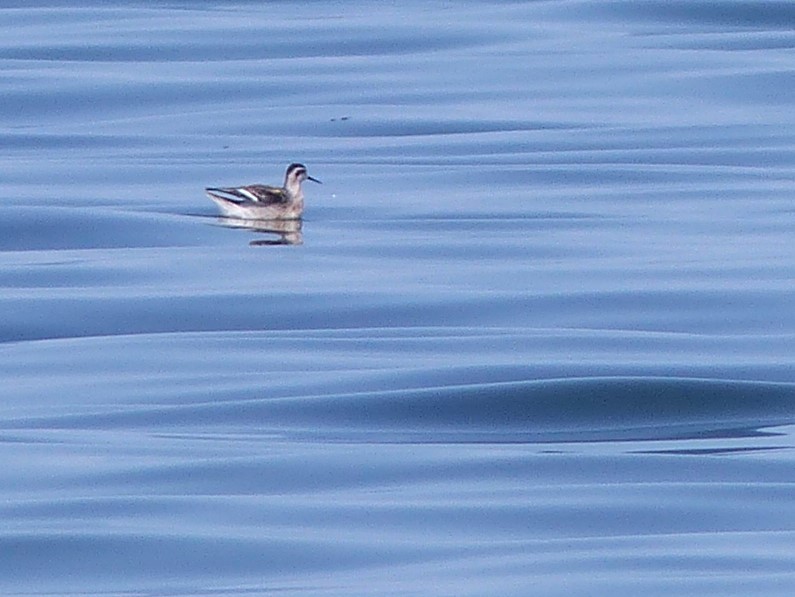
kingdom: Animalia
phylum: Chordata
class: Aves
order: Charadriiformes
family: Scolopacidae
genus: Phalaropus
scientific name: Phalaropus lobatus
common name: Red-necked phalarope
